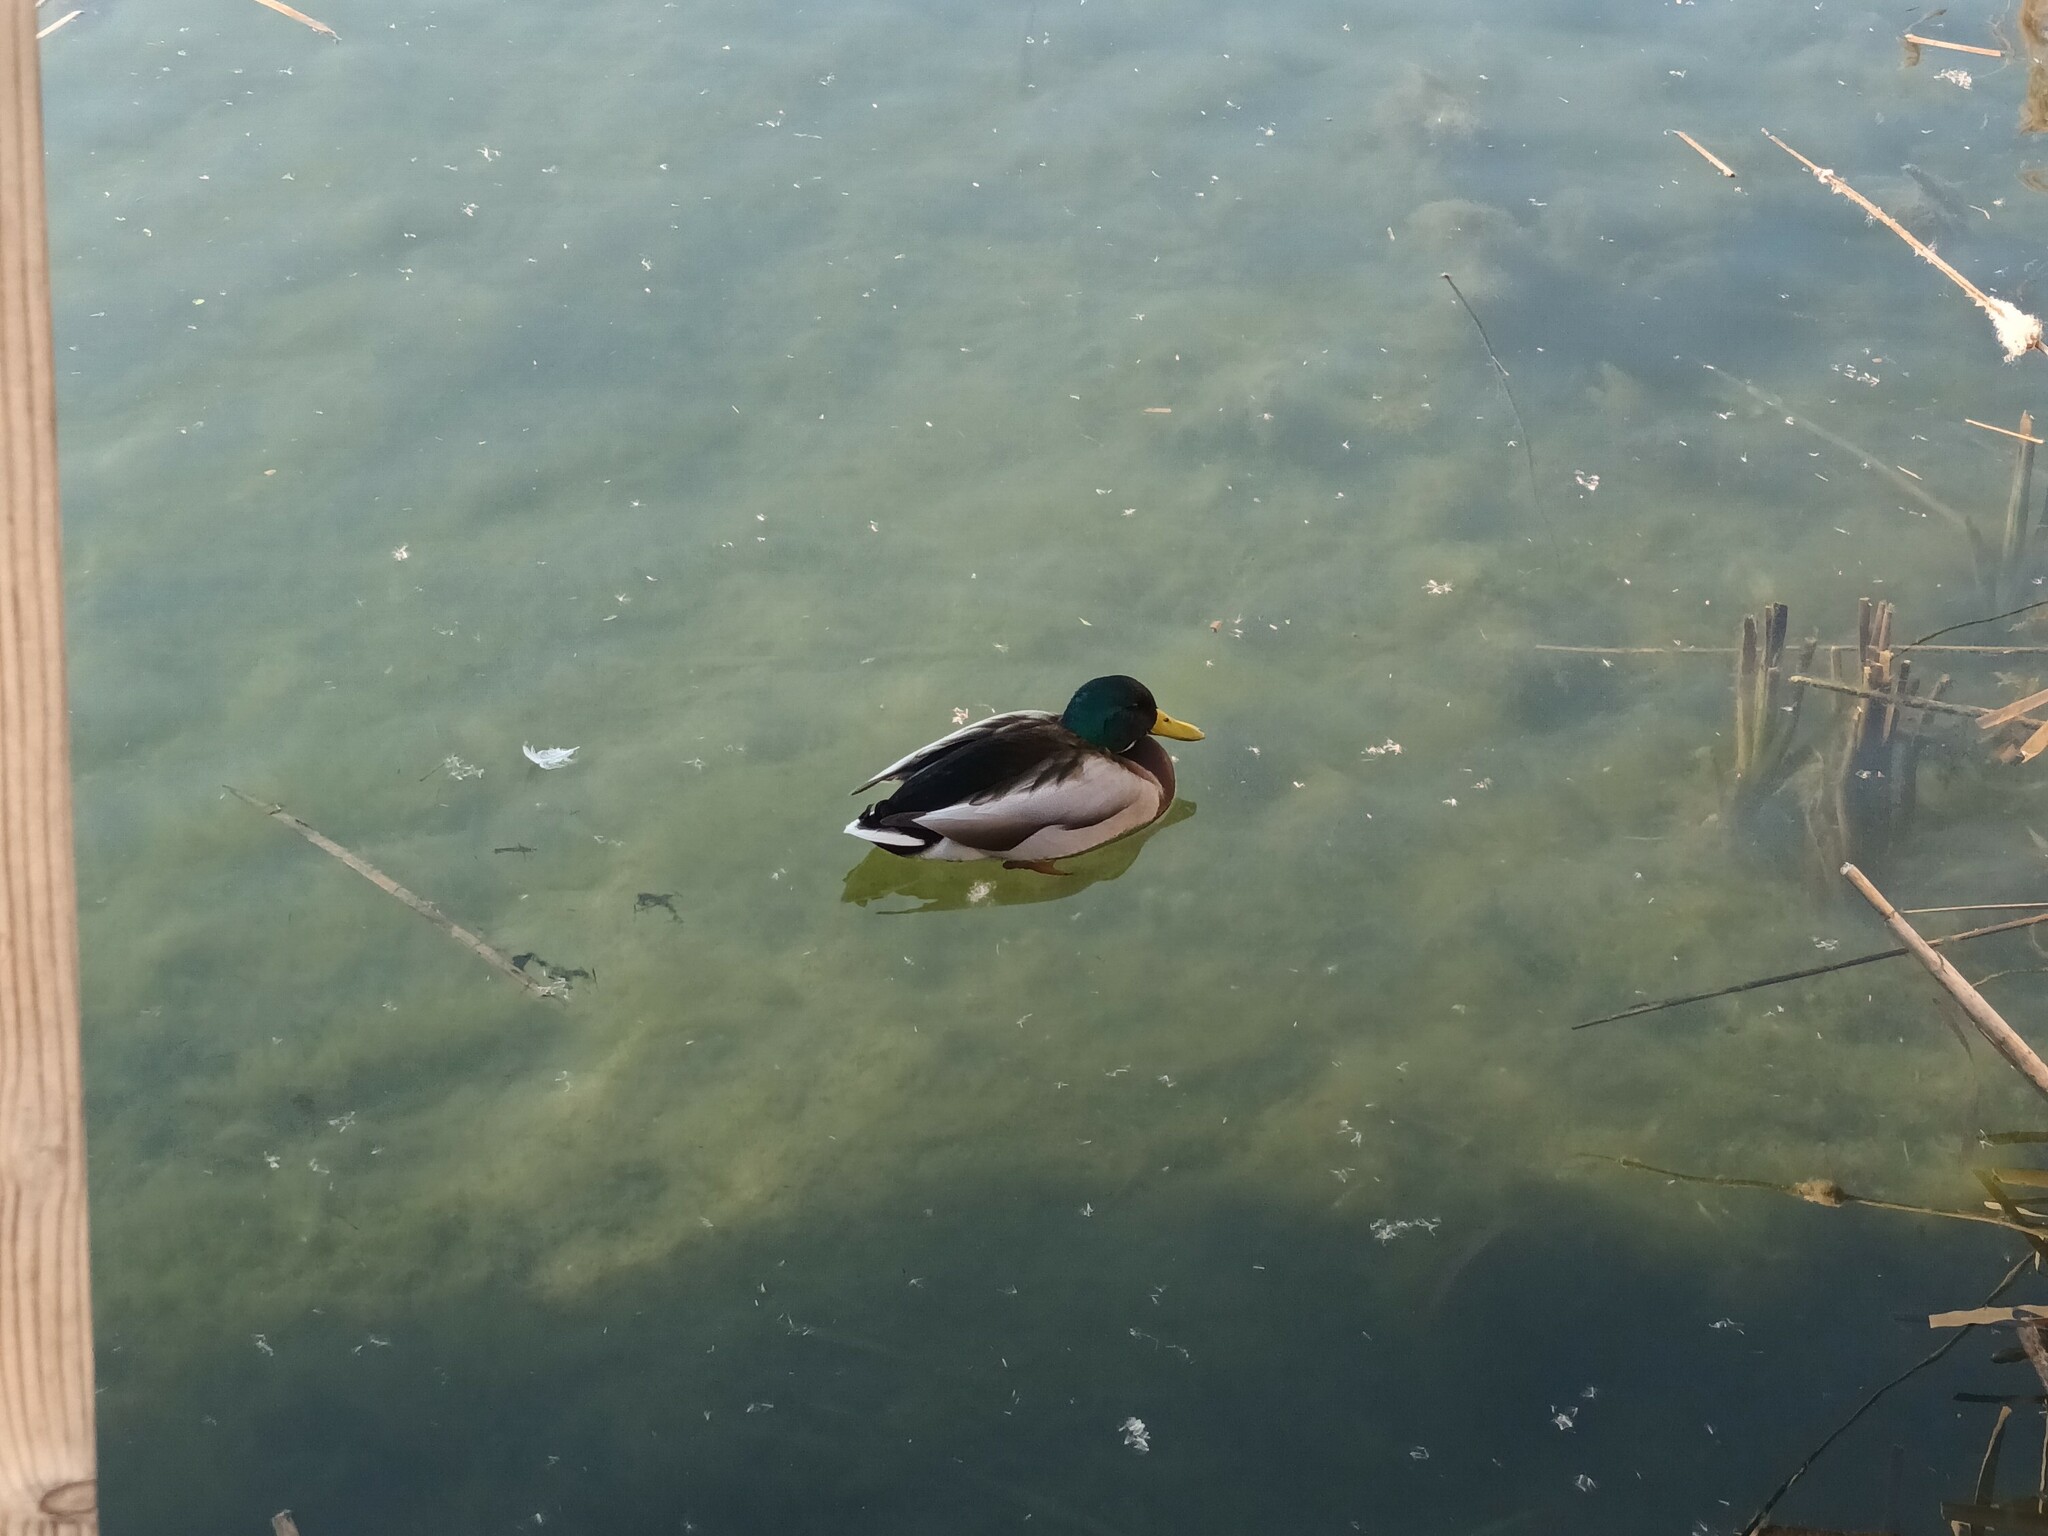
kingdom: Animalia
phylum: Chordata
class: Aves
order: Anseriformes
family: Anatidae
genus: Anas
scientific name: Anas platyrhynchos
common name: Mallard
